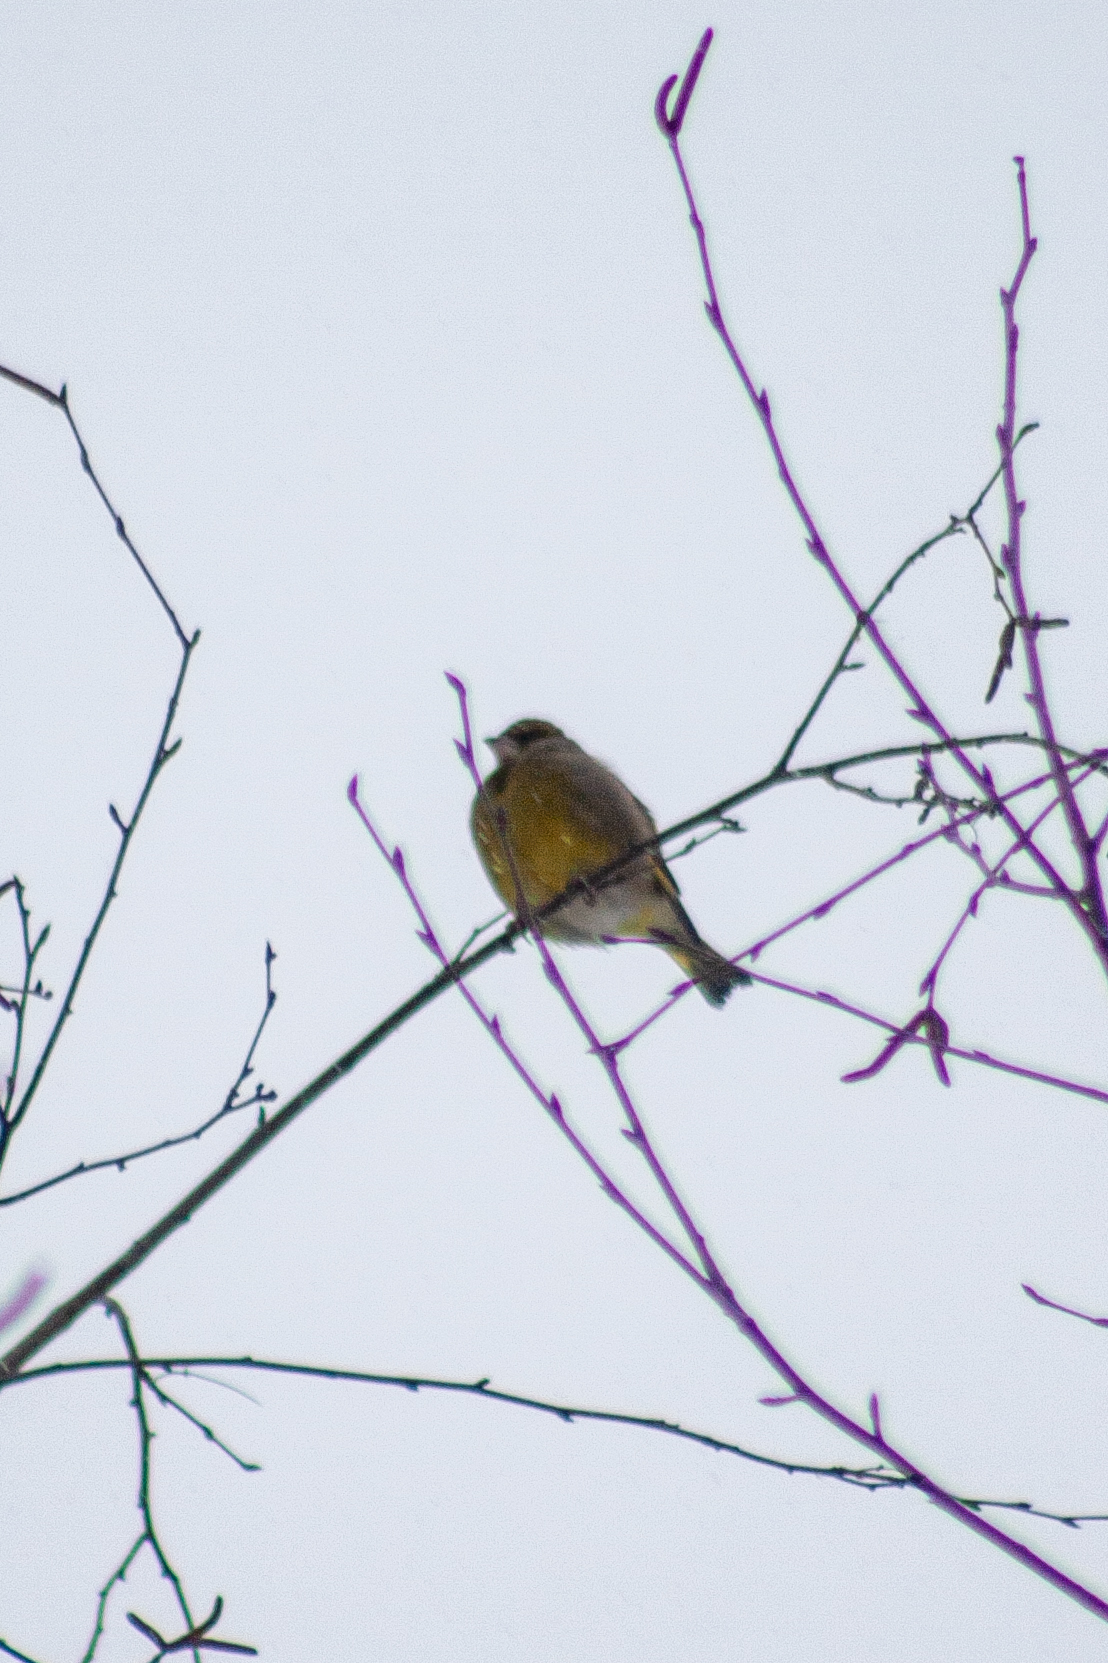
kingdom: Plantae
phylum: Tracheophyta
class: Liliopsida
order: Poales
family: Poaceae
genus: Chloris
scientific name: Chloris chloris
